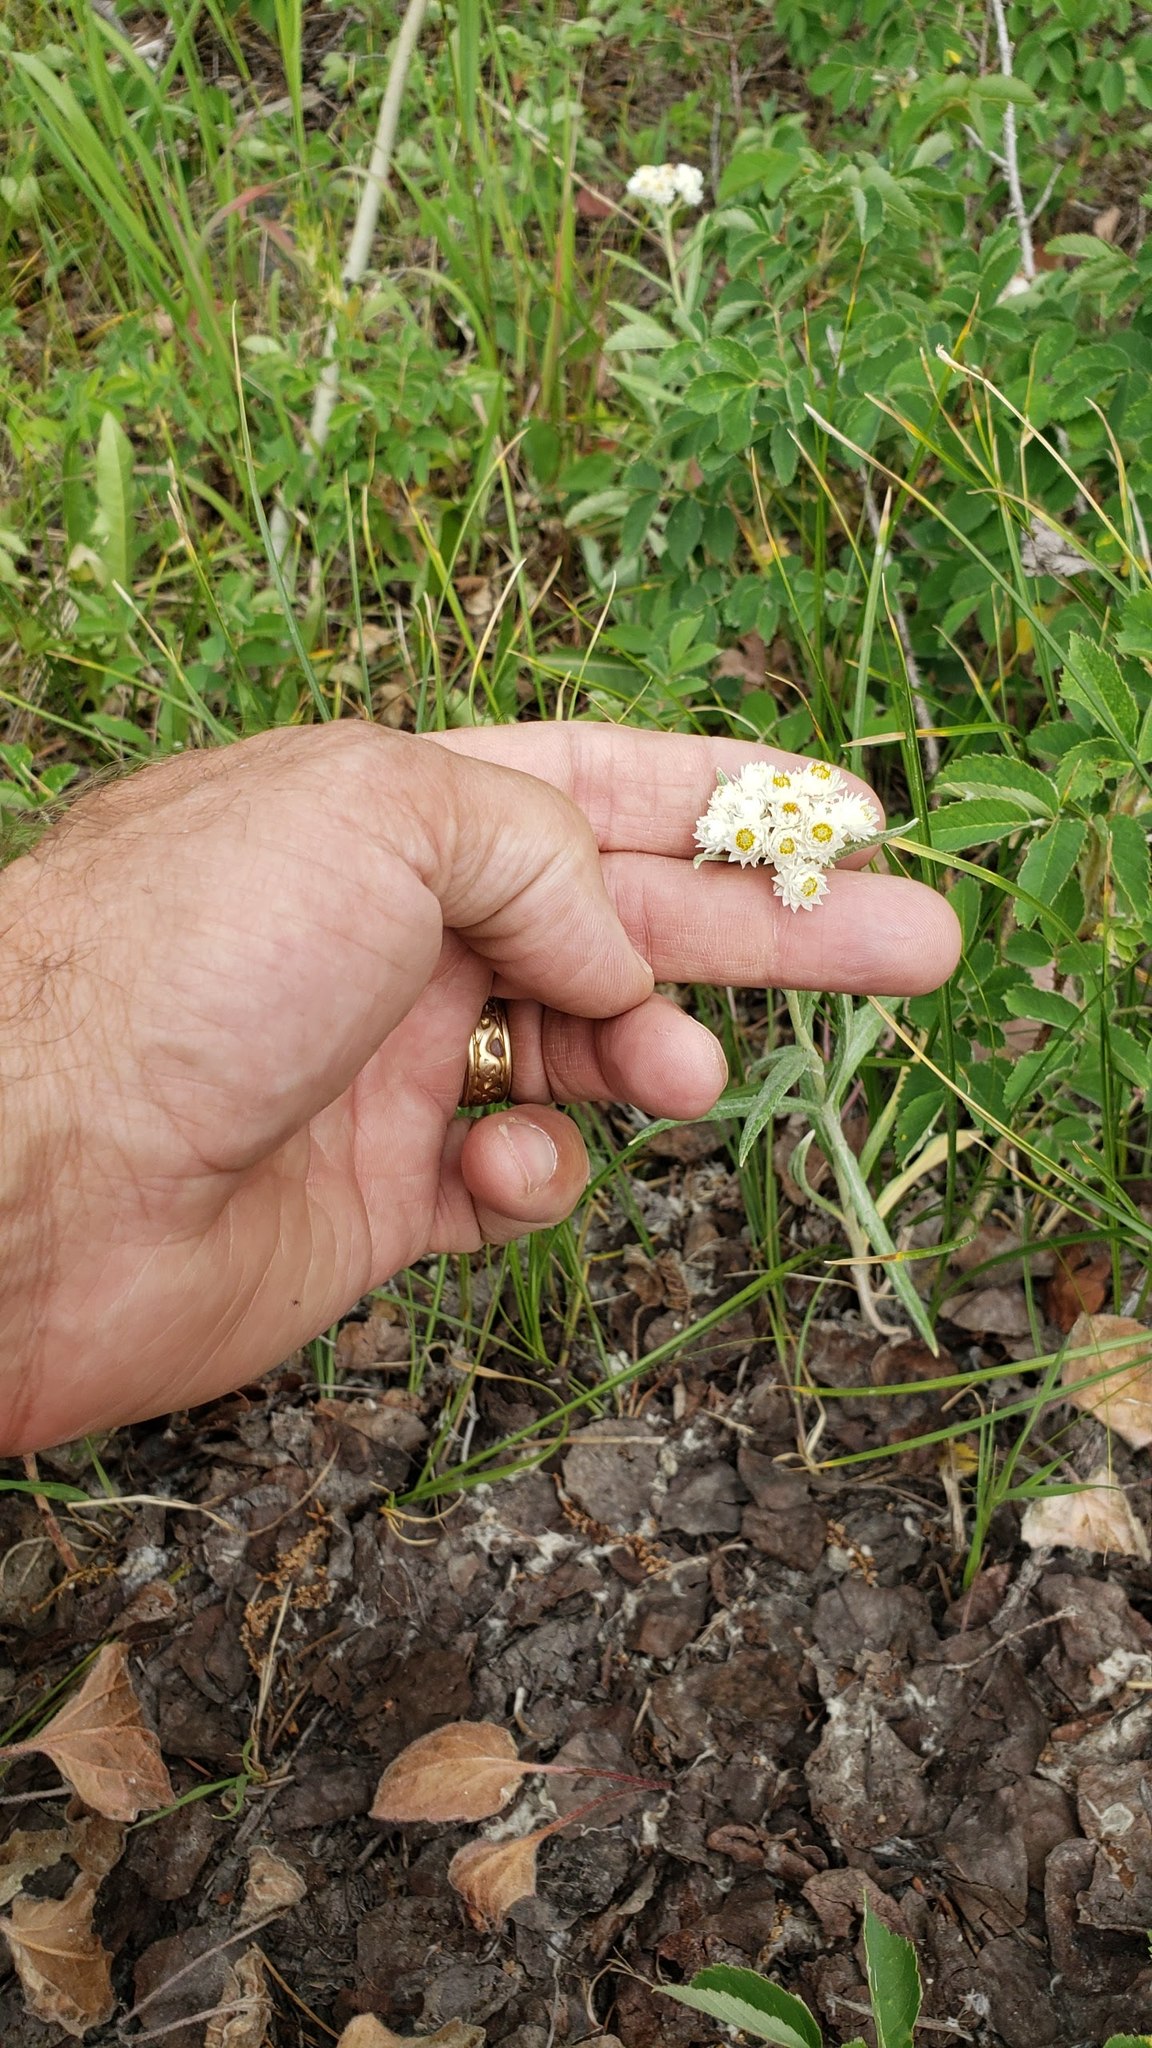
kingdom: Plantae
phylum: Tracheophyta
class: Magnoliopsida
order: Asterales
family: Asteraceae
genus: Anaphalis
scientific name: Anaphalis margaritacea
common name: Pearly everlasting
